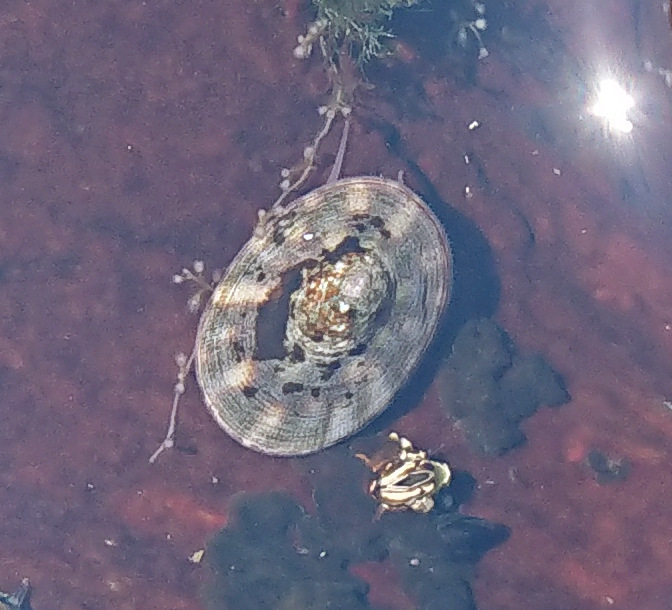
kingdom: Animalia
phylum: Mollusca
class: Gastropoda
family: Lottiidae
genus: Testudinalia
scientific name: Testudinalia testudinalis
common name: Common tortoiseshell limpet
